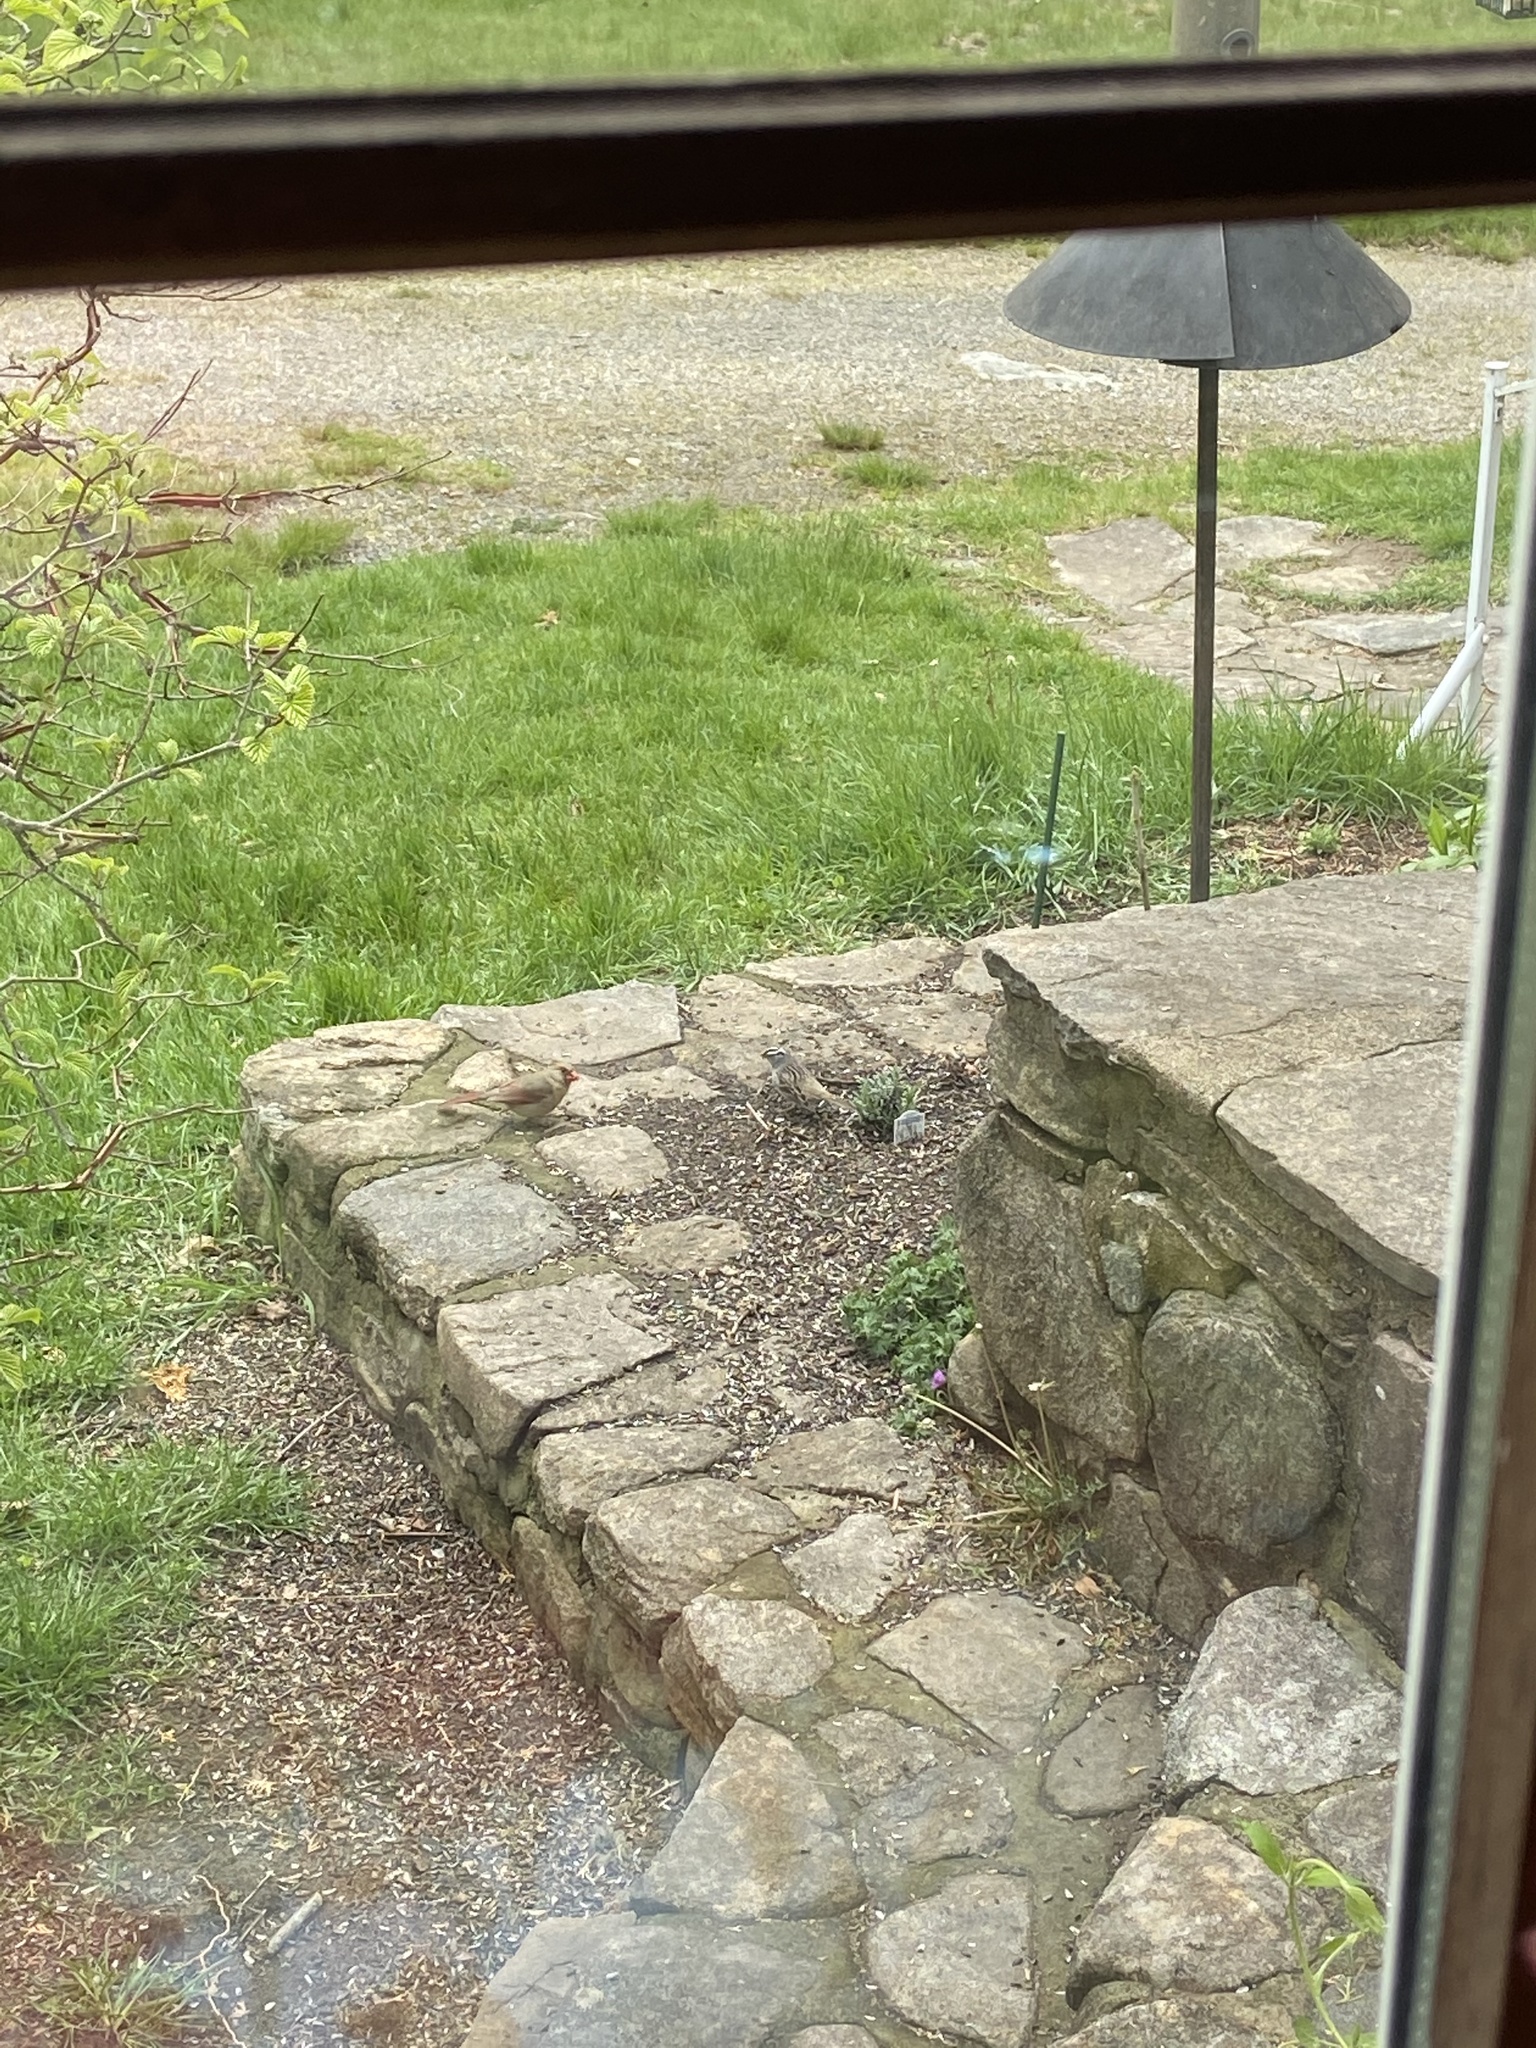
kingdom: Animalia
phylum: Chordata
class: Aves
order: Passeriformes
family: Passerellidae
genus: Zonotrichia
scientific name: Zonotrichia leucophrys
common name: White-crowned sparrow
